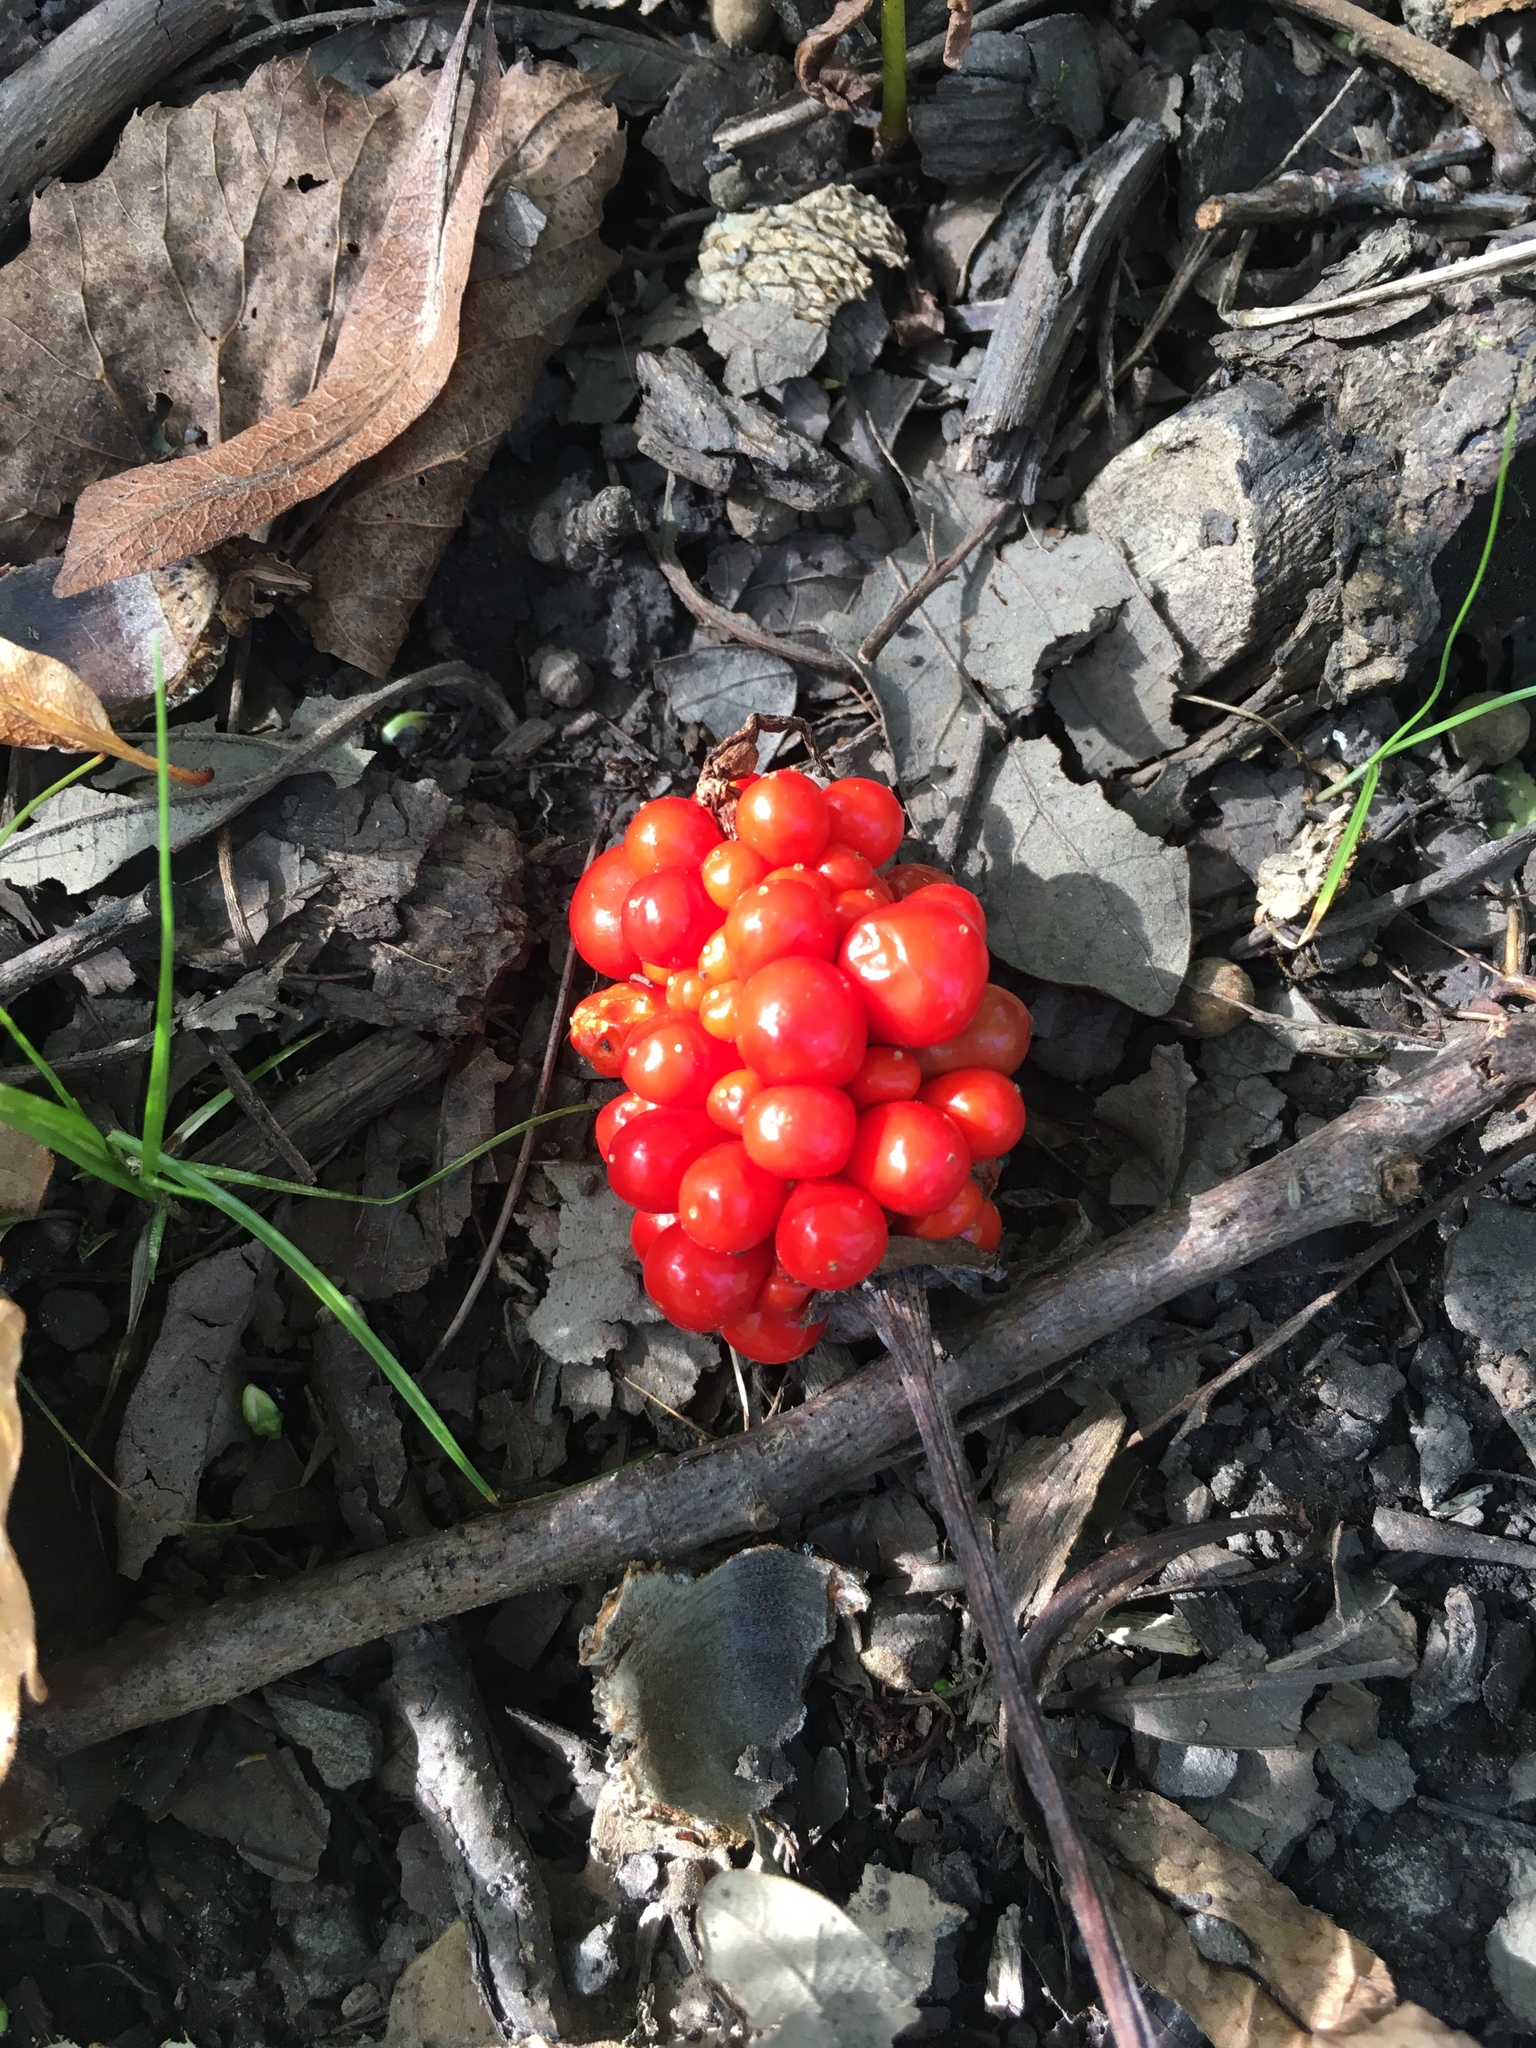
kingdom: Plantae
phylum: Tracheophyta
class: Liliopsida
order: Alismatales
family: Araceae
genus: Arisaema
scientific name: Arisaema triphyllum
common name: Jack-in-the-pulpit
